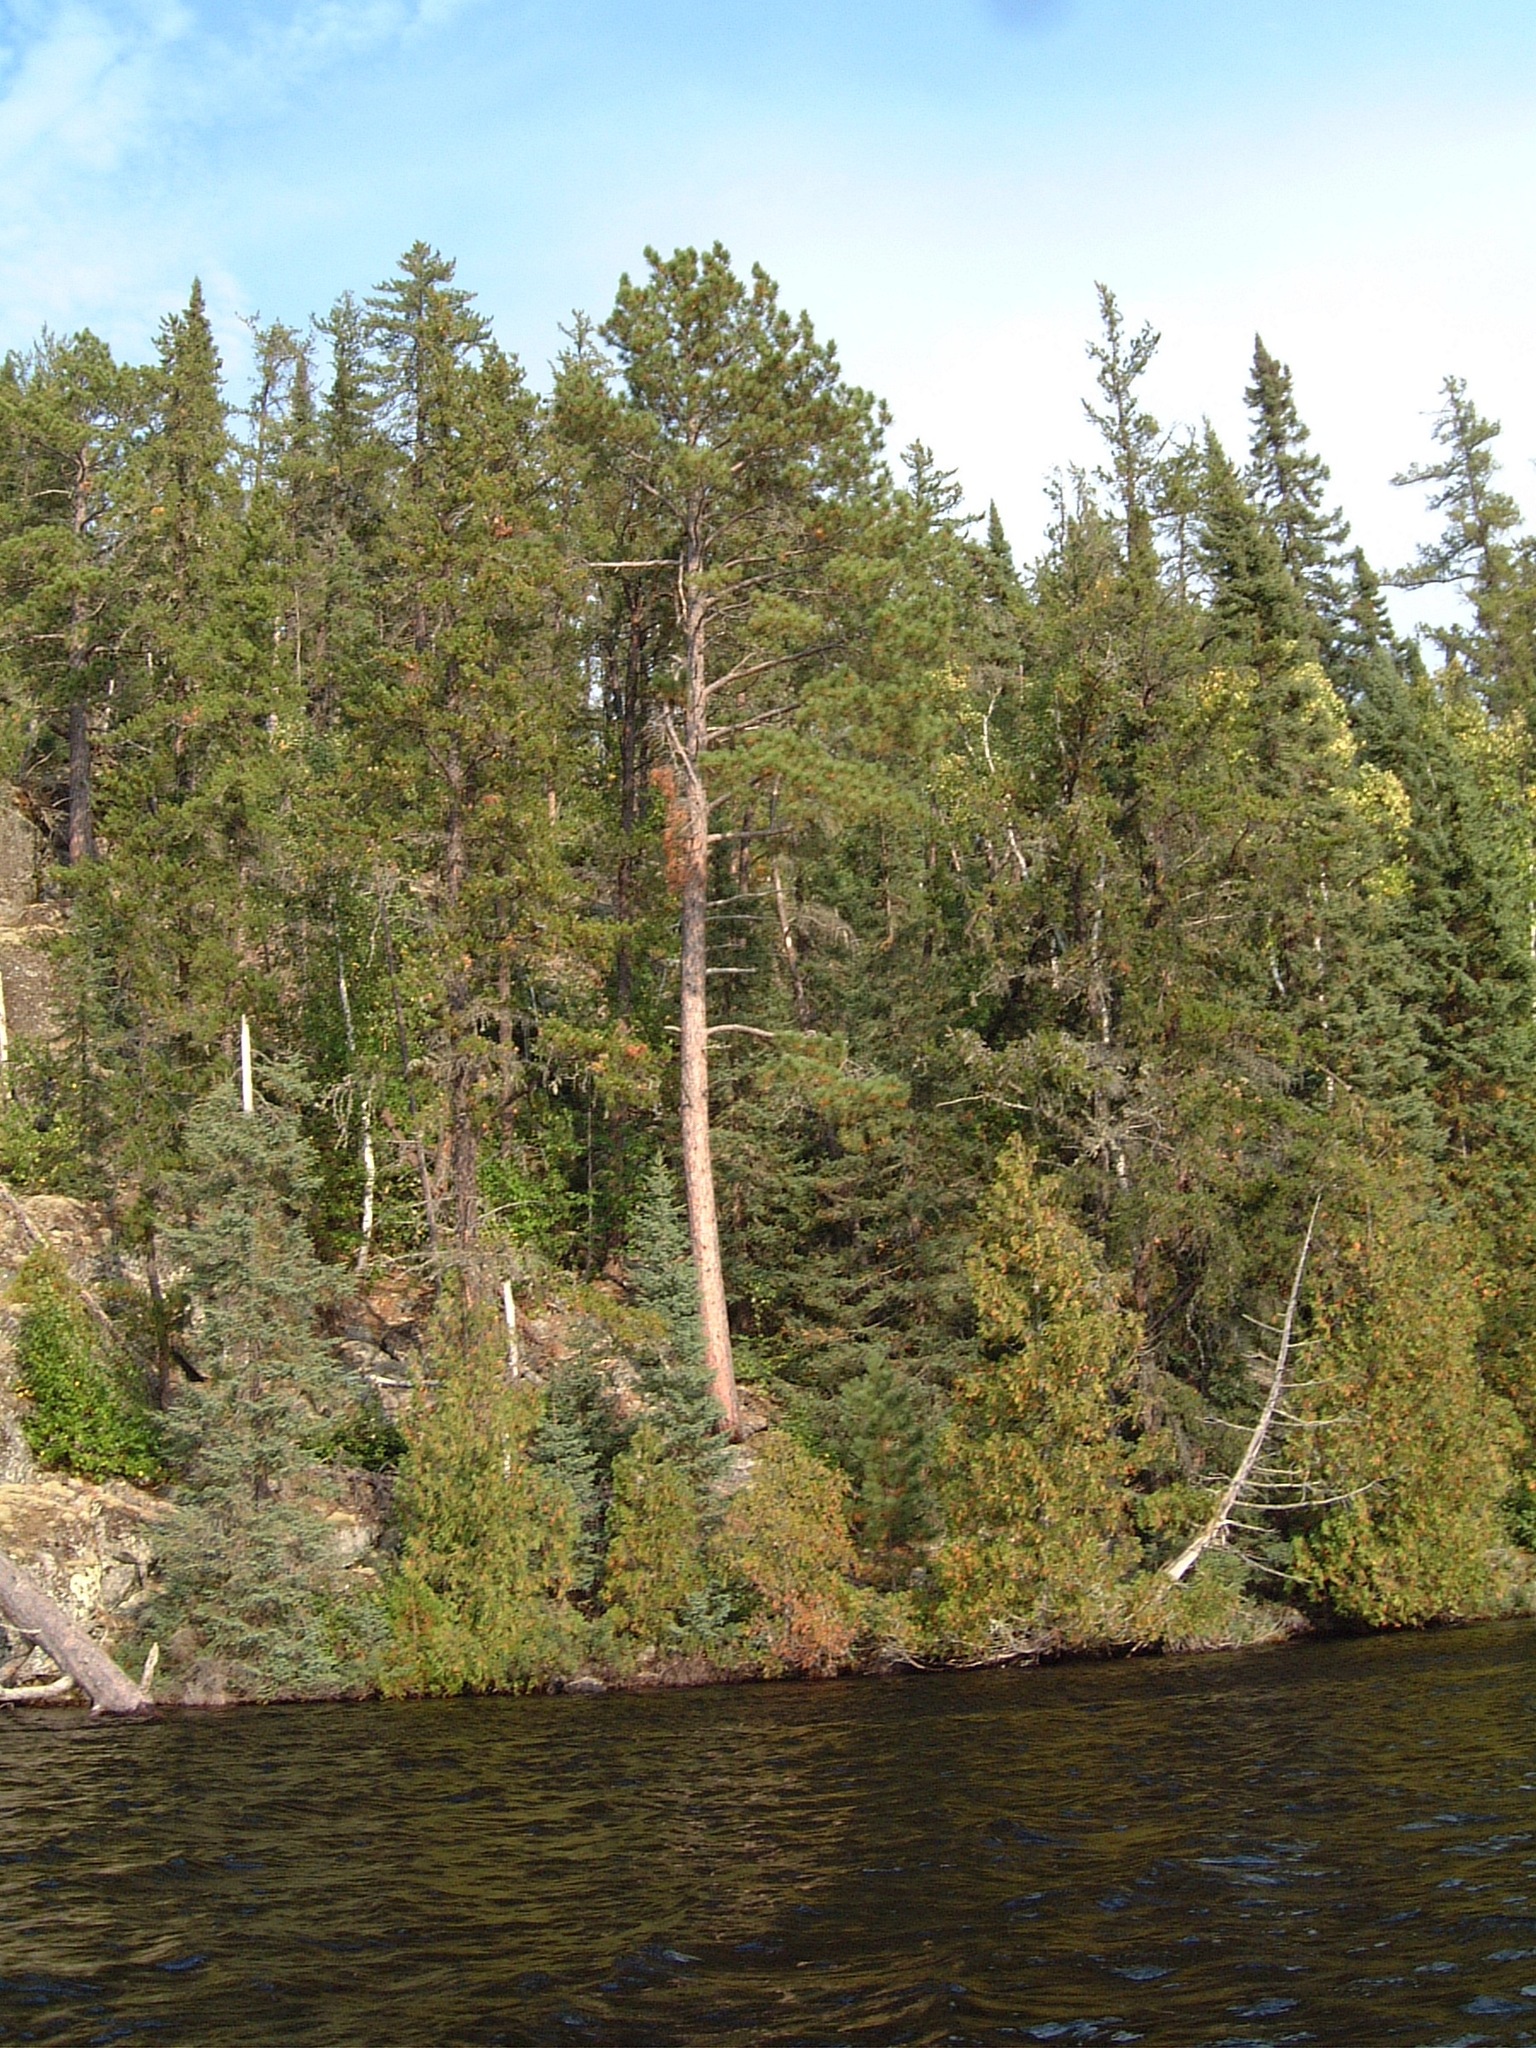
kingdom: Plantae
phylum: Tracheophyta
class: Pinopsida
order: Pinales
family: Pinaceae
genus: Pinus
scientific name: Pinus resinosa
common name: Norway pine
